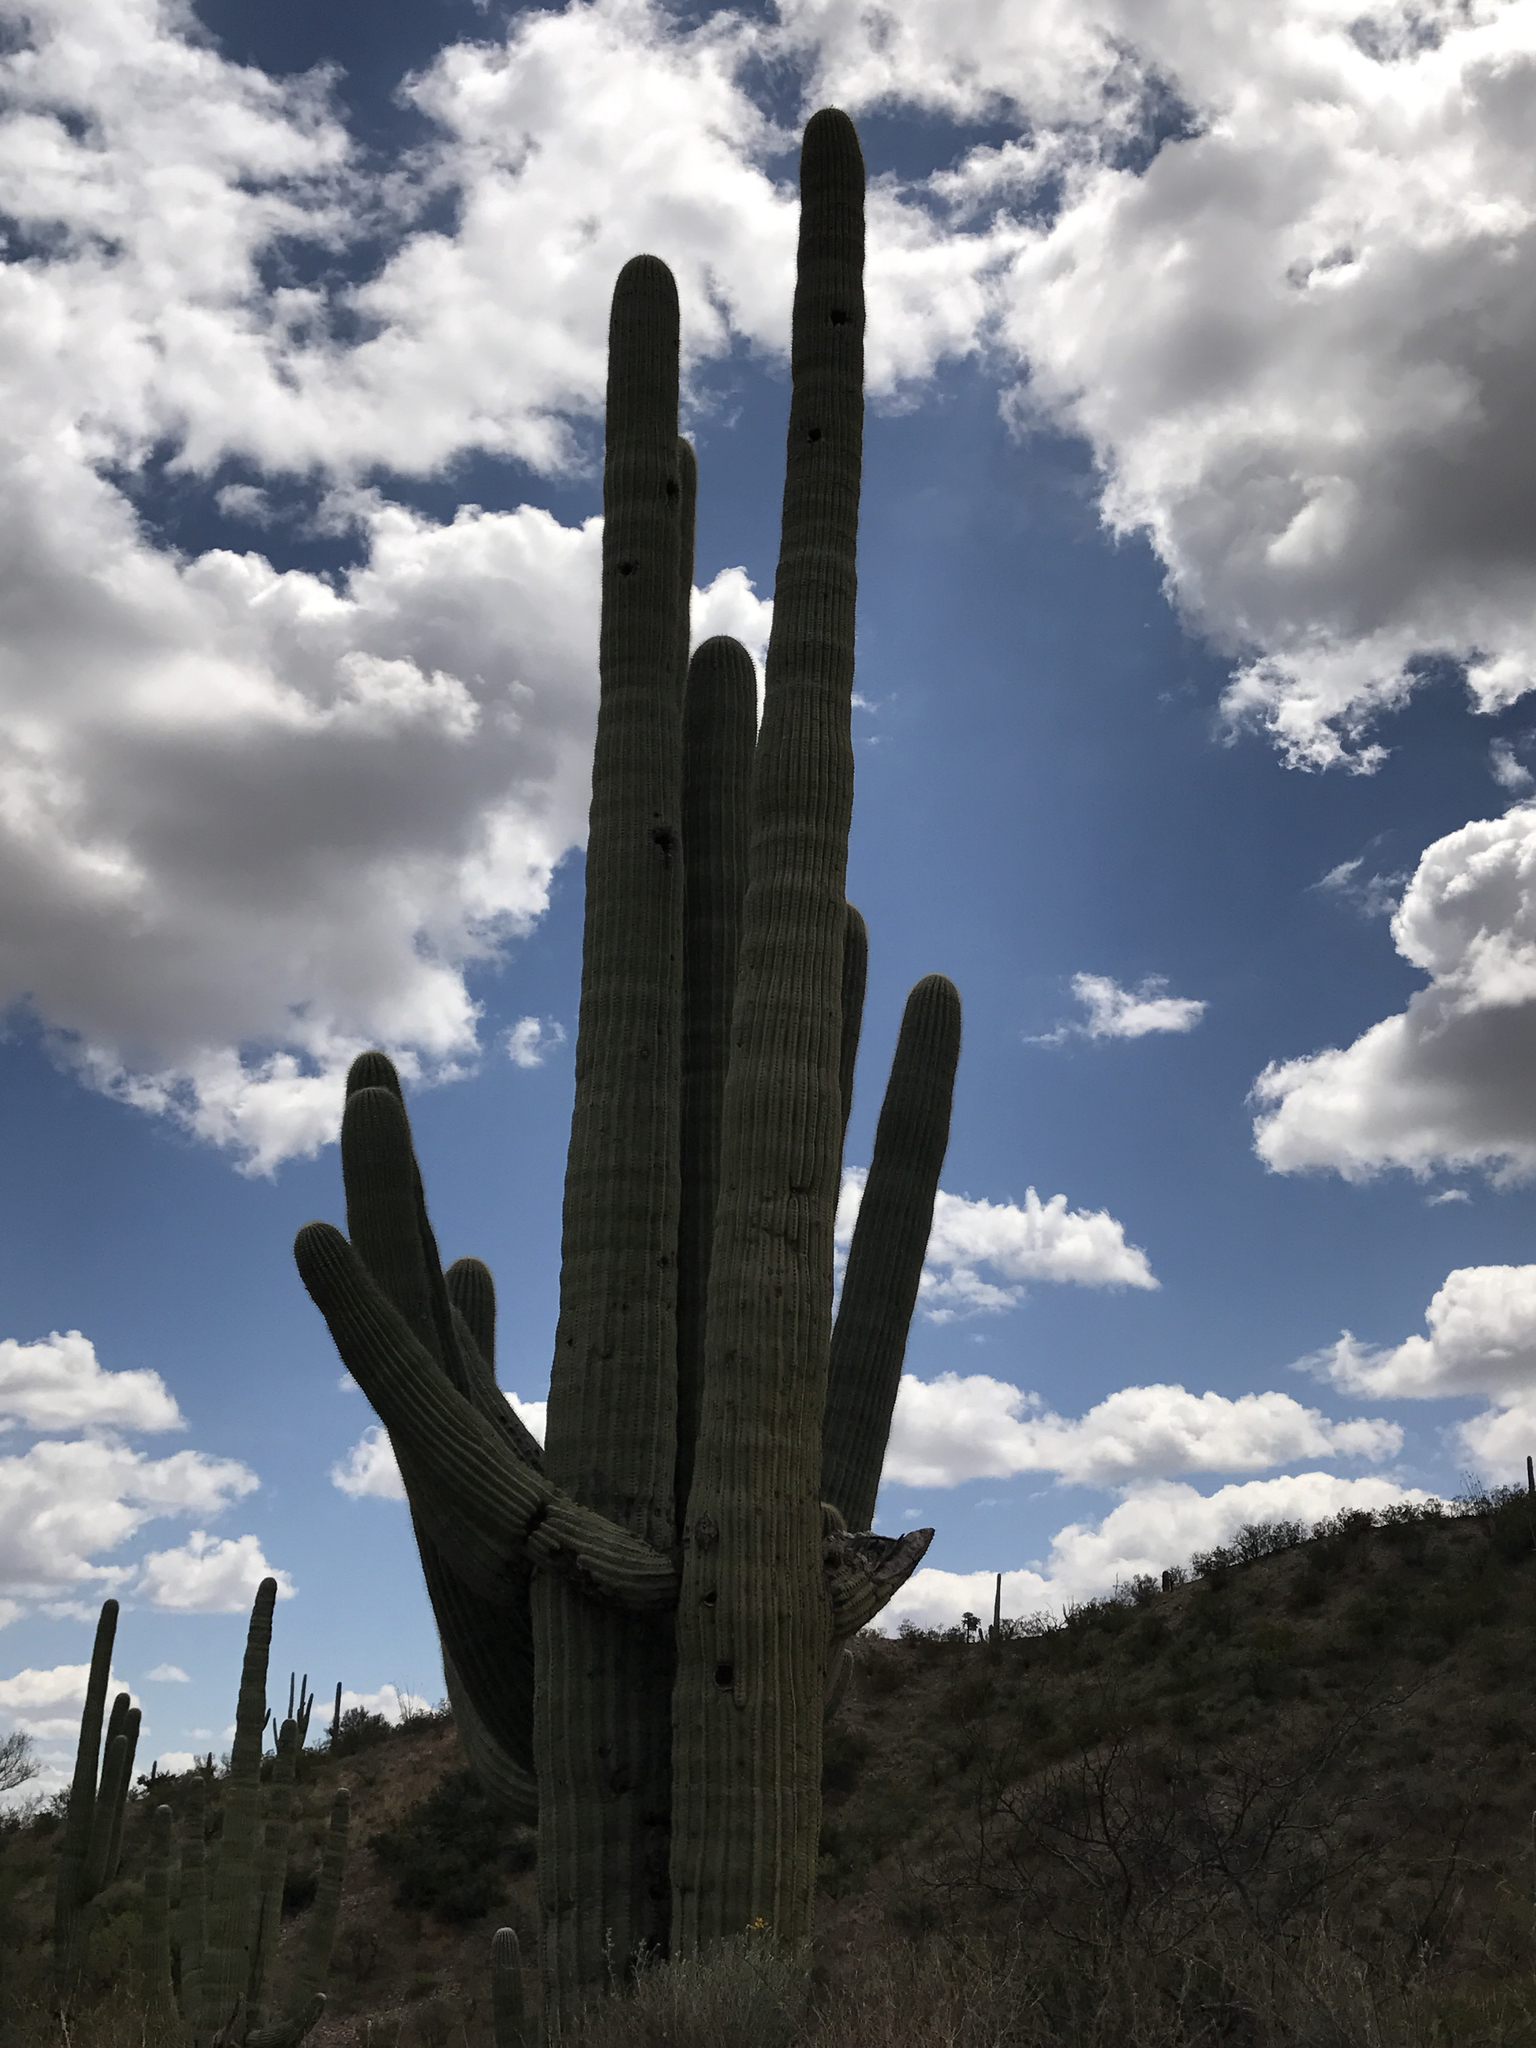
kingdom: Plantae
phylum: Tracheophyta
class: Magnoliopsida
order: Caryophyllales
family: Cactaceae
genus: Carnegiea
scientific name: Carnegiea gigantea
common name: Saguaro
